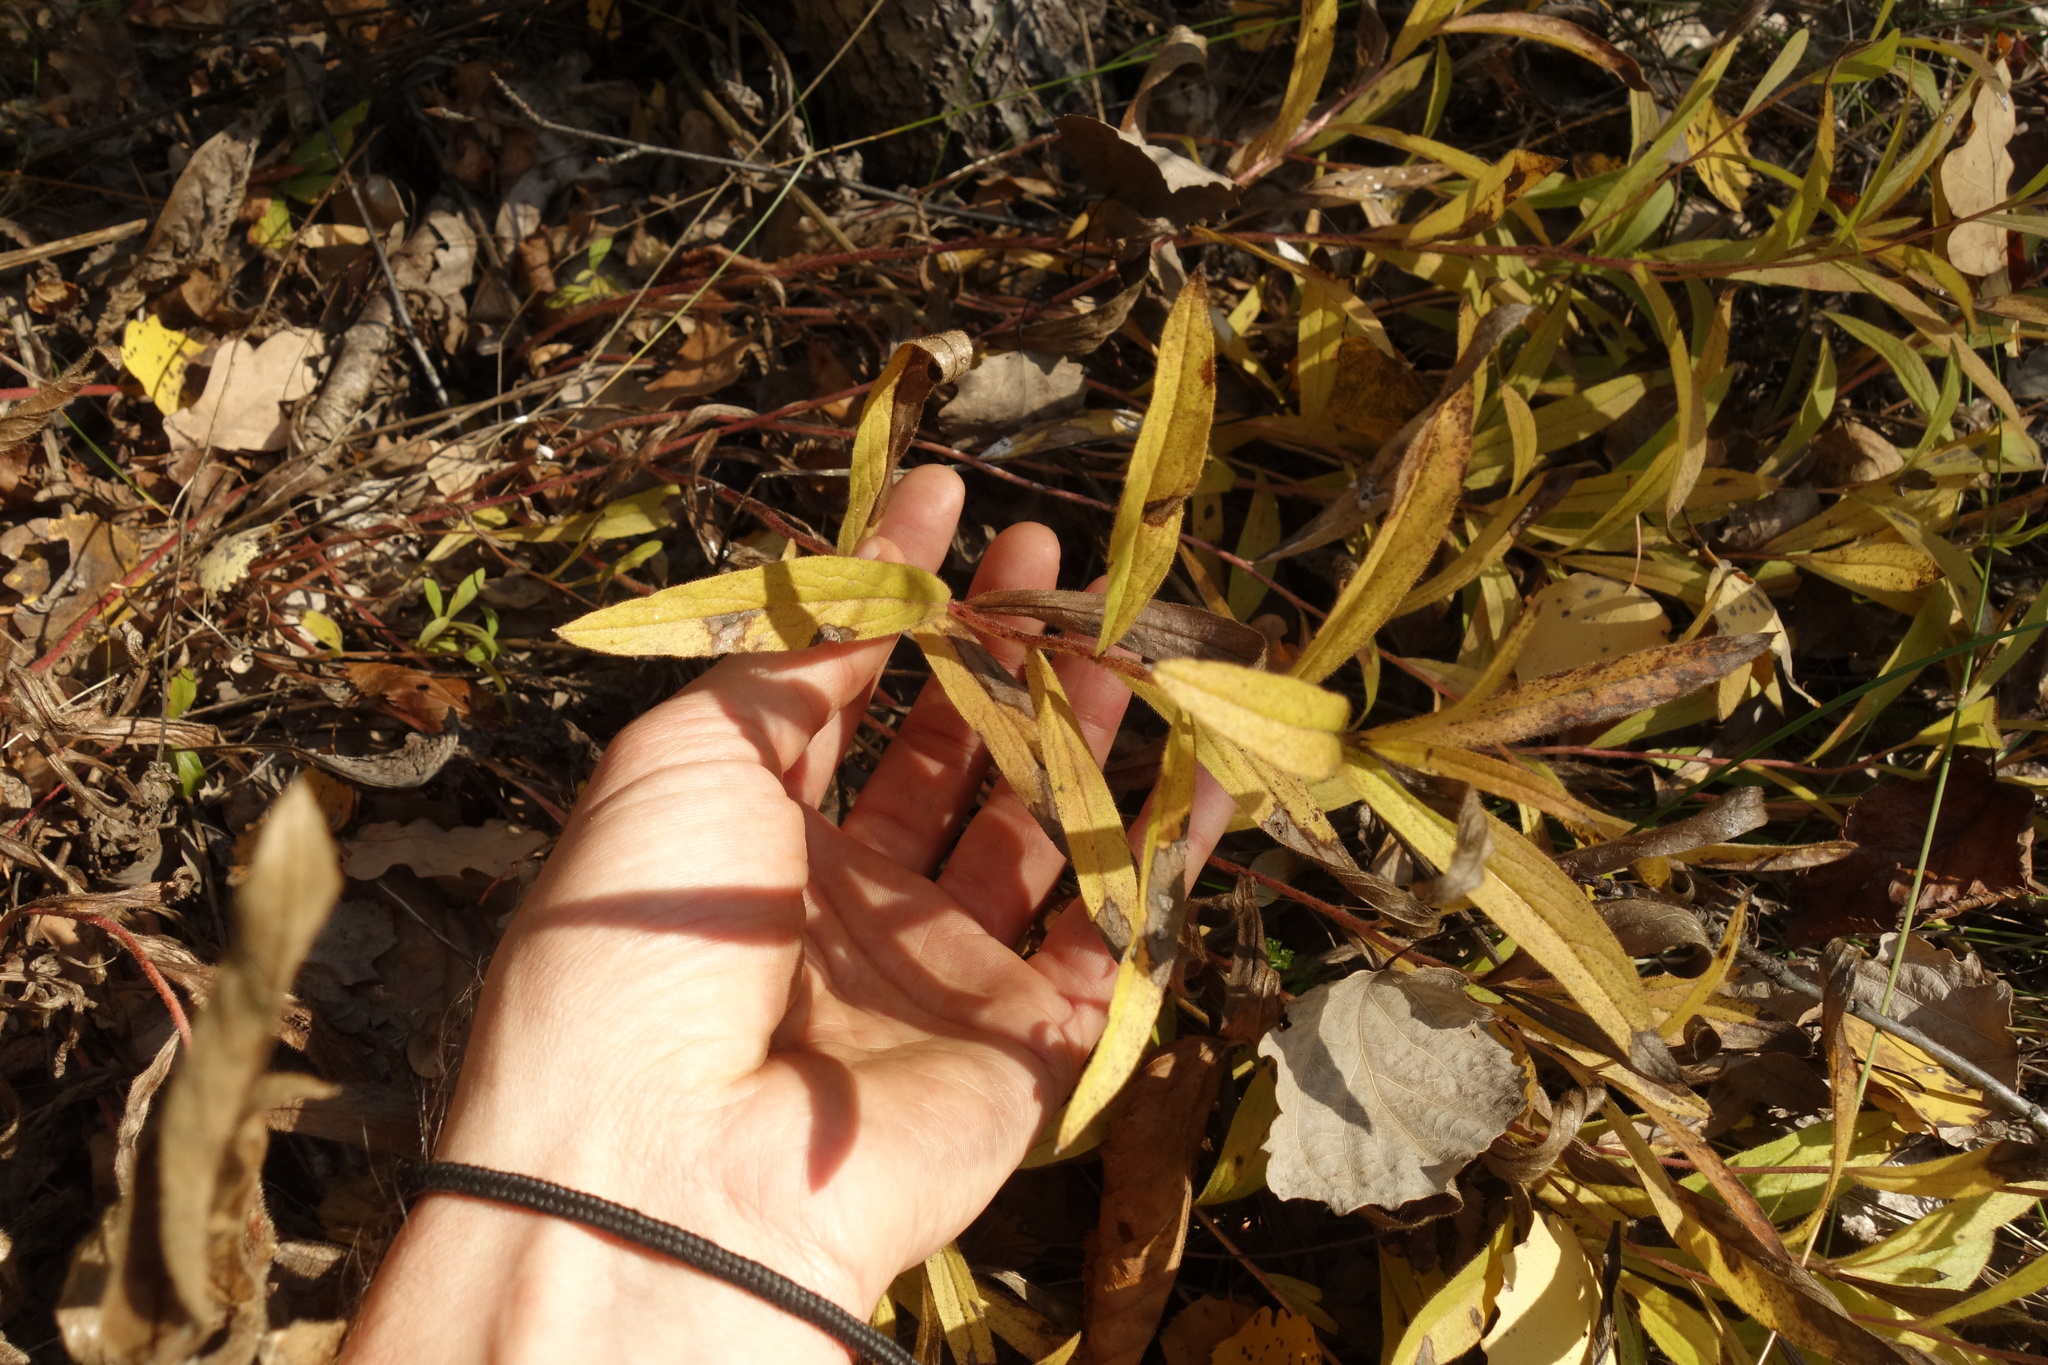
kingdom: Plantae
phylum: Tracheophyta
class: Magnoliopsida
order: Asterales
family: Asteraceae
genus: Pentanema
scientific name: Pentanema hirtum
